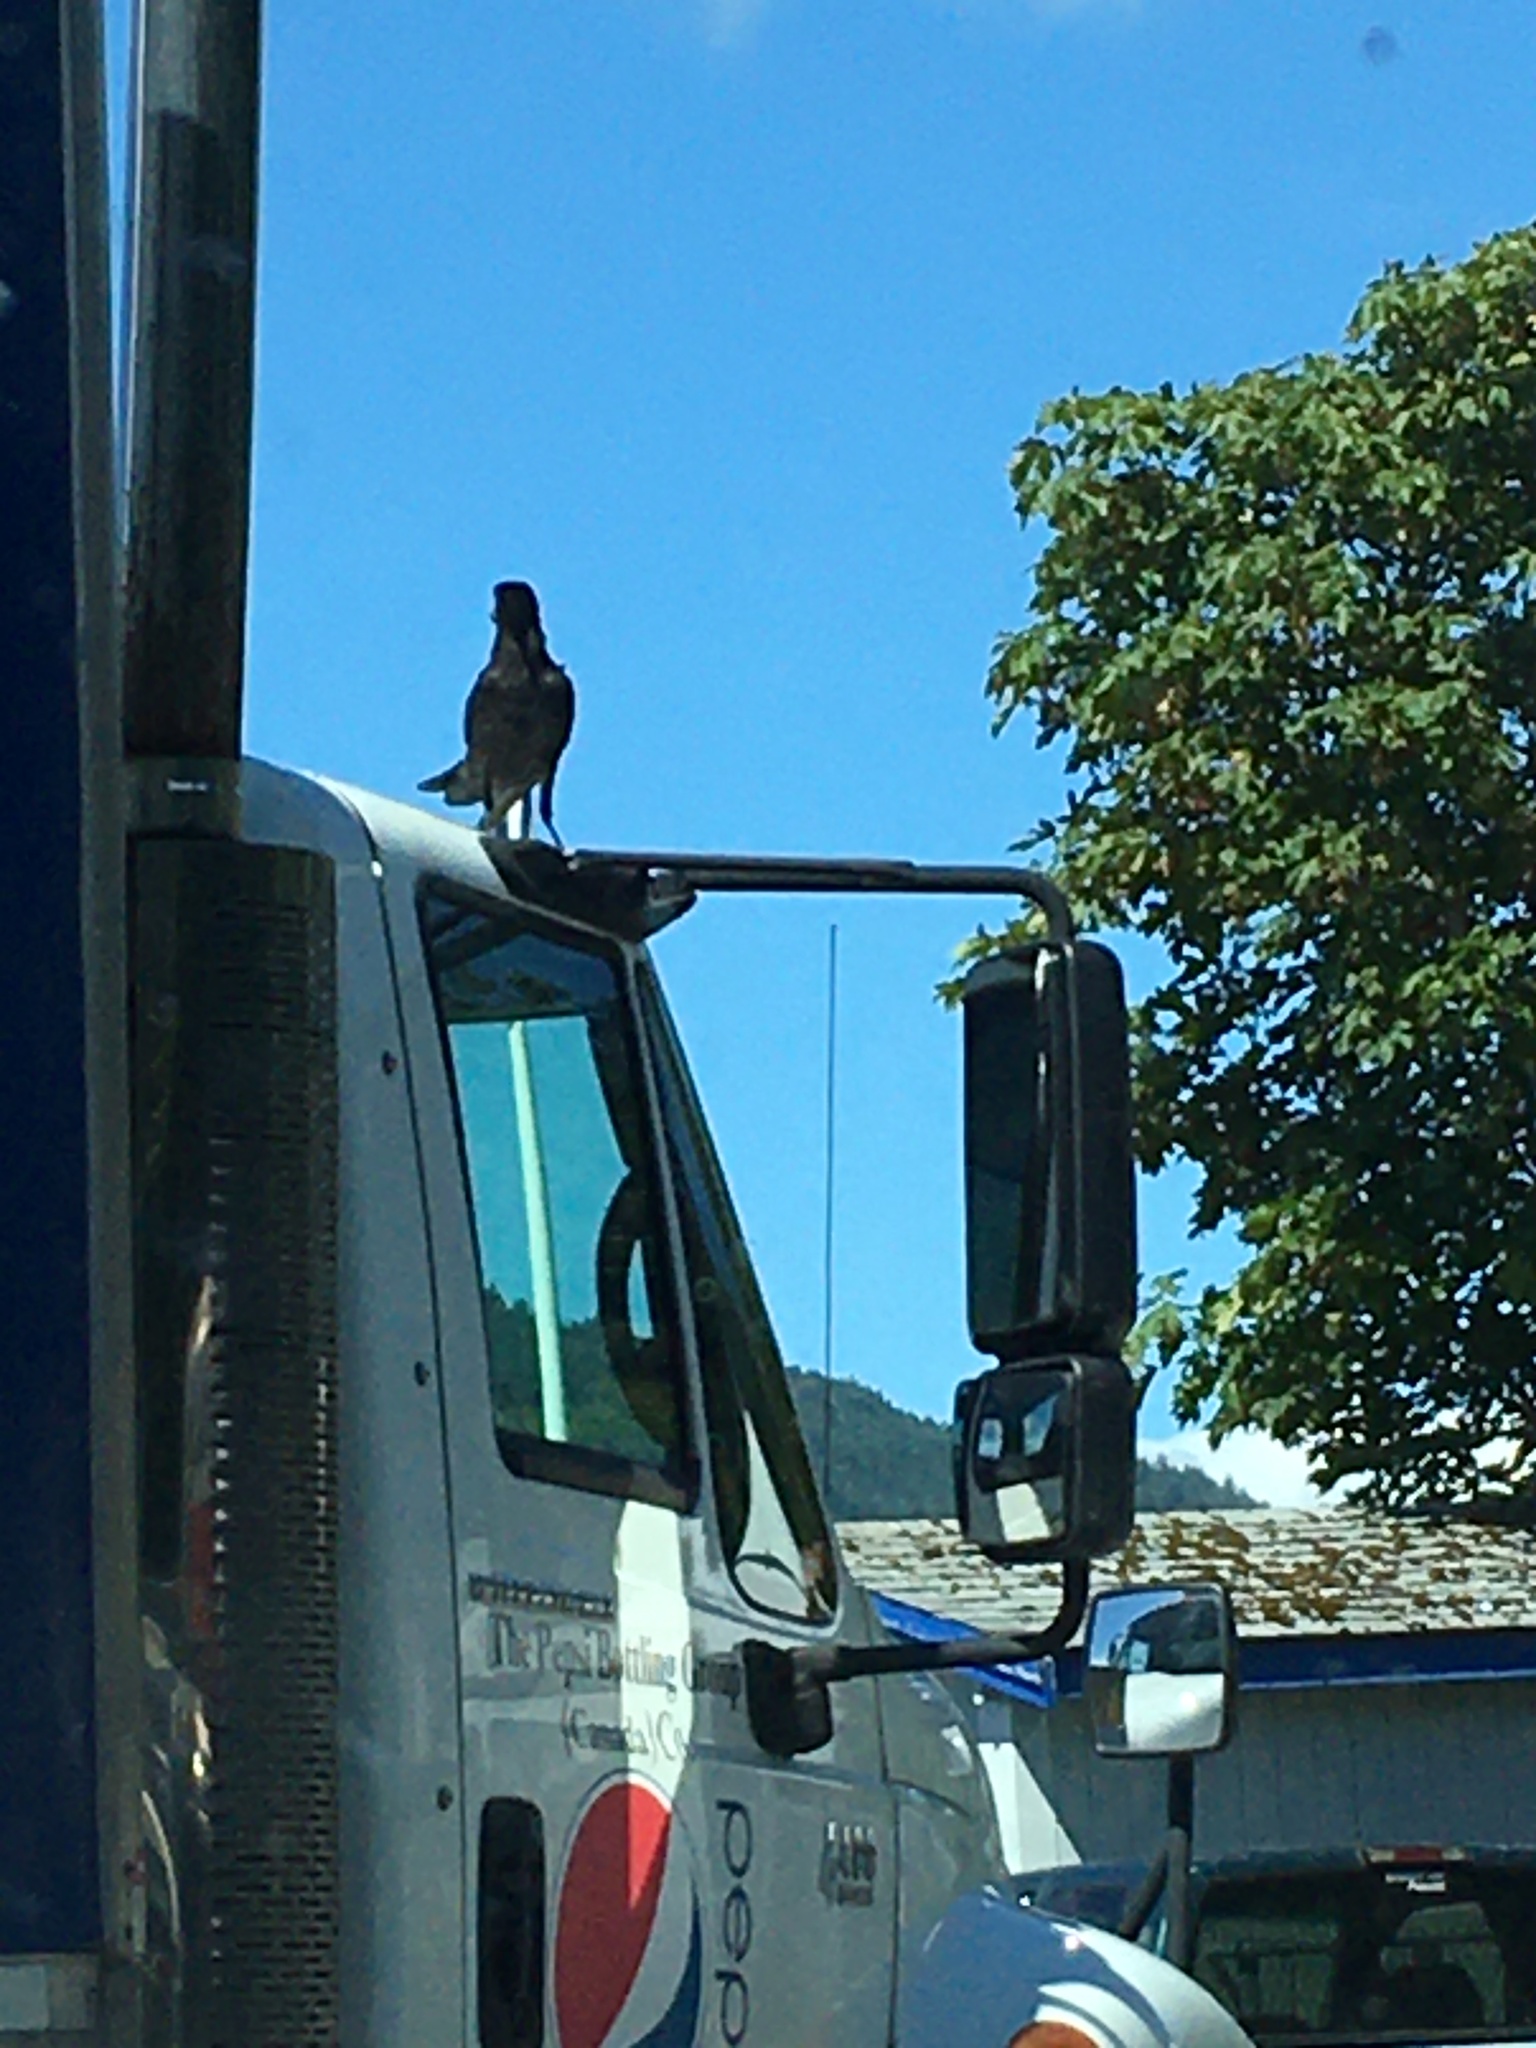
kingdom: Animalia
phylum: Chordata
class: Aves
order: Passeriformes
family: Corvidae
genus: Corvus
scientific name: Corvus brachyrhynchos
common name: American crow
